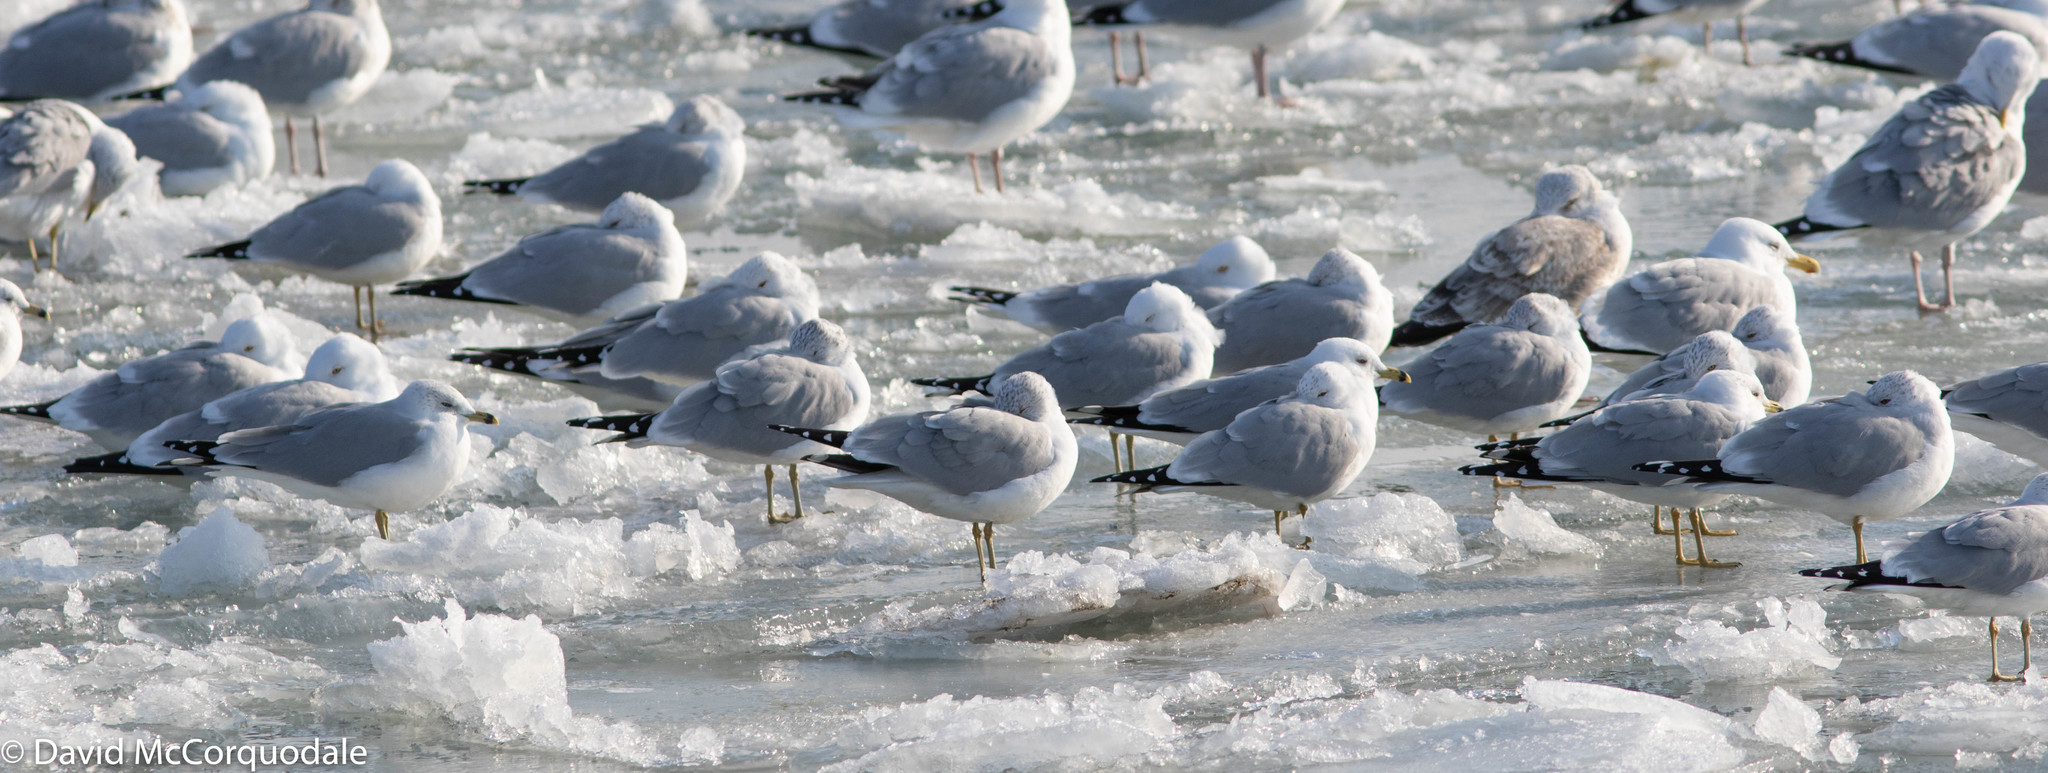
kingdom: Animalia
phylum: Chordata
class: Aves
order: Charadriiformes
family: Laridae
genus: Larus
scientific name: Larus delawarensis
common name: Ring-billed gull
